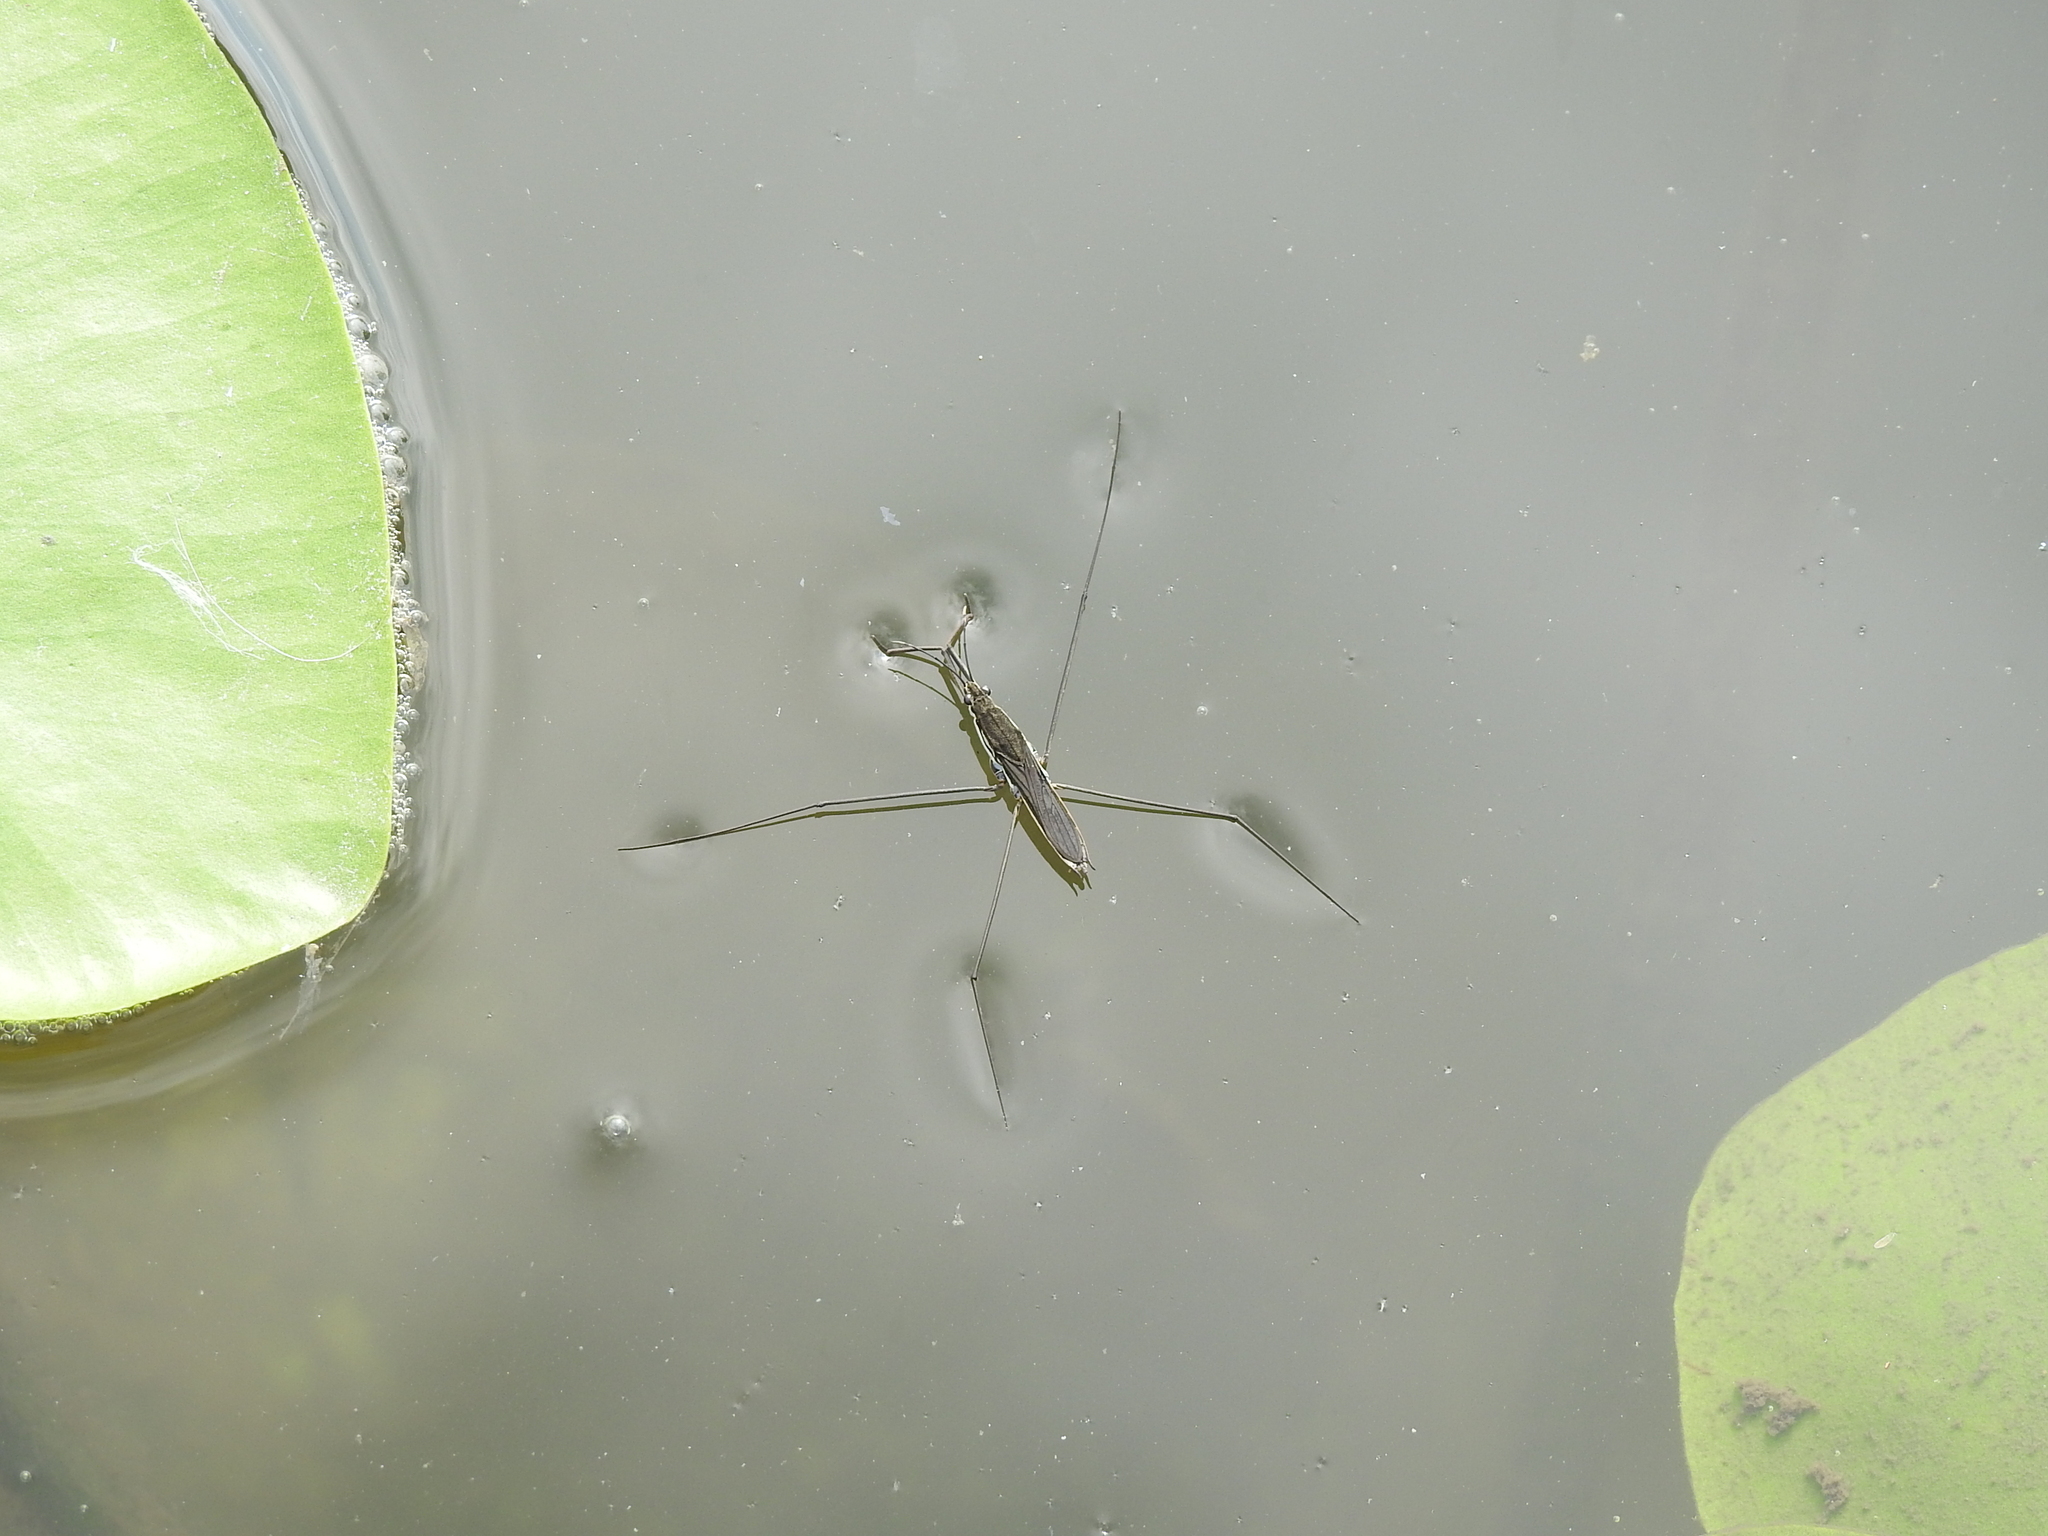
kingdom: Animalia
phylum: Arthropoda
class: Insecta
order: Hemiptera
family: Gerridae
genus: Aquarius
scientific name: Aquarius paludum
